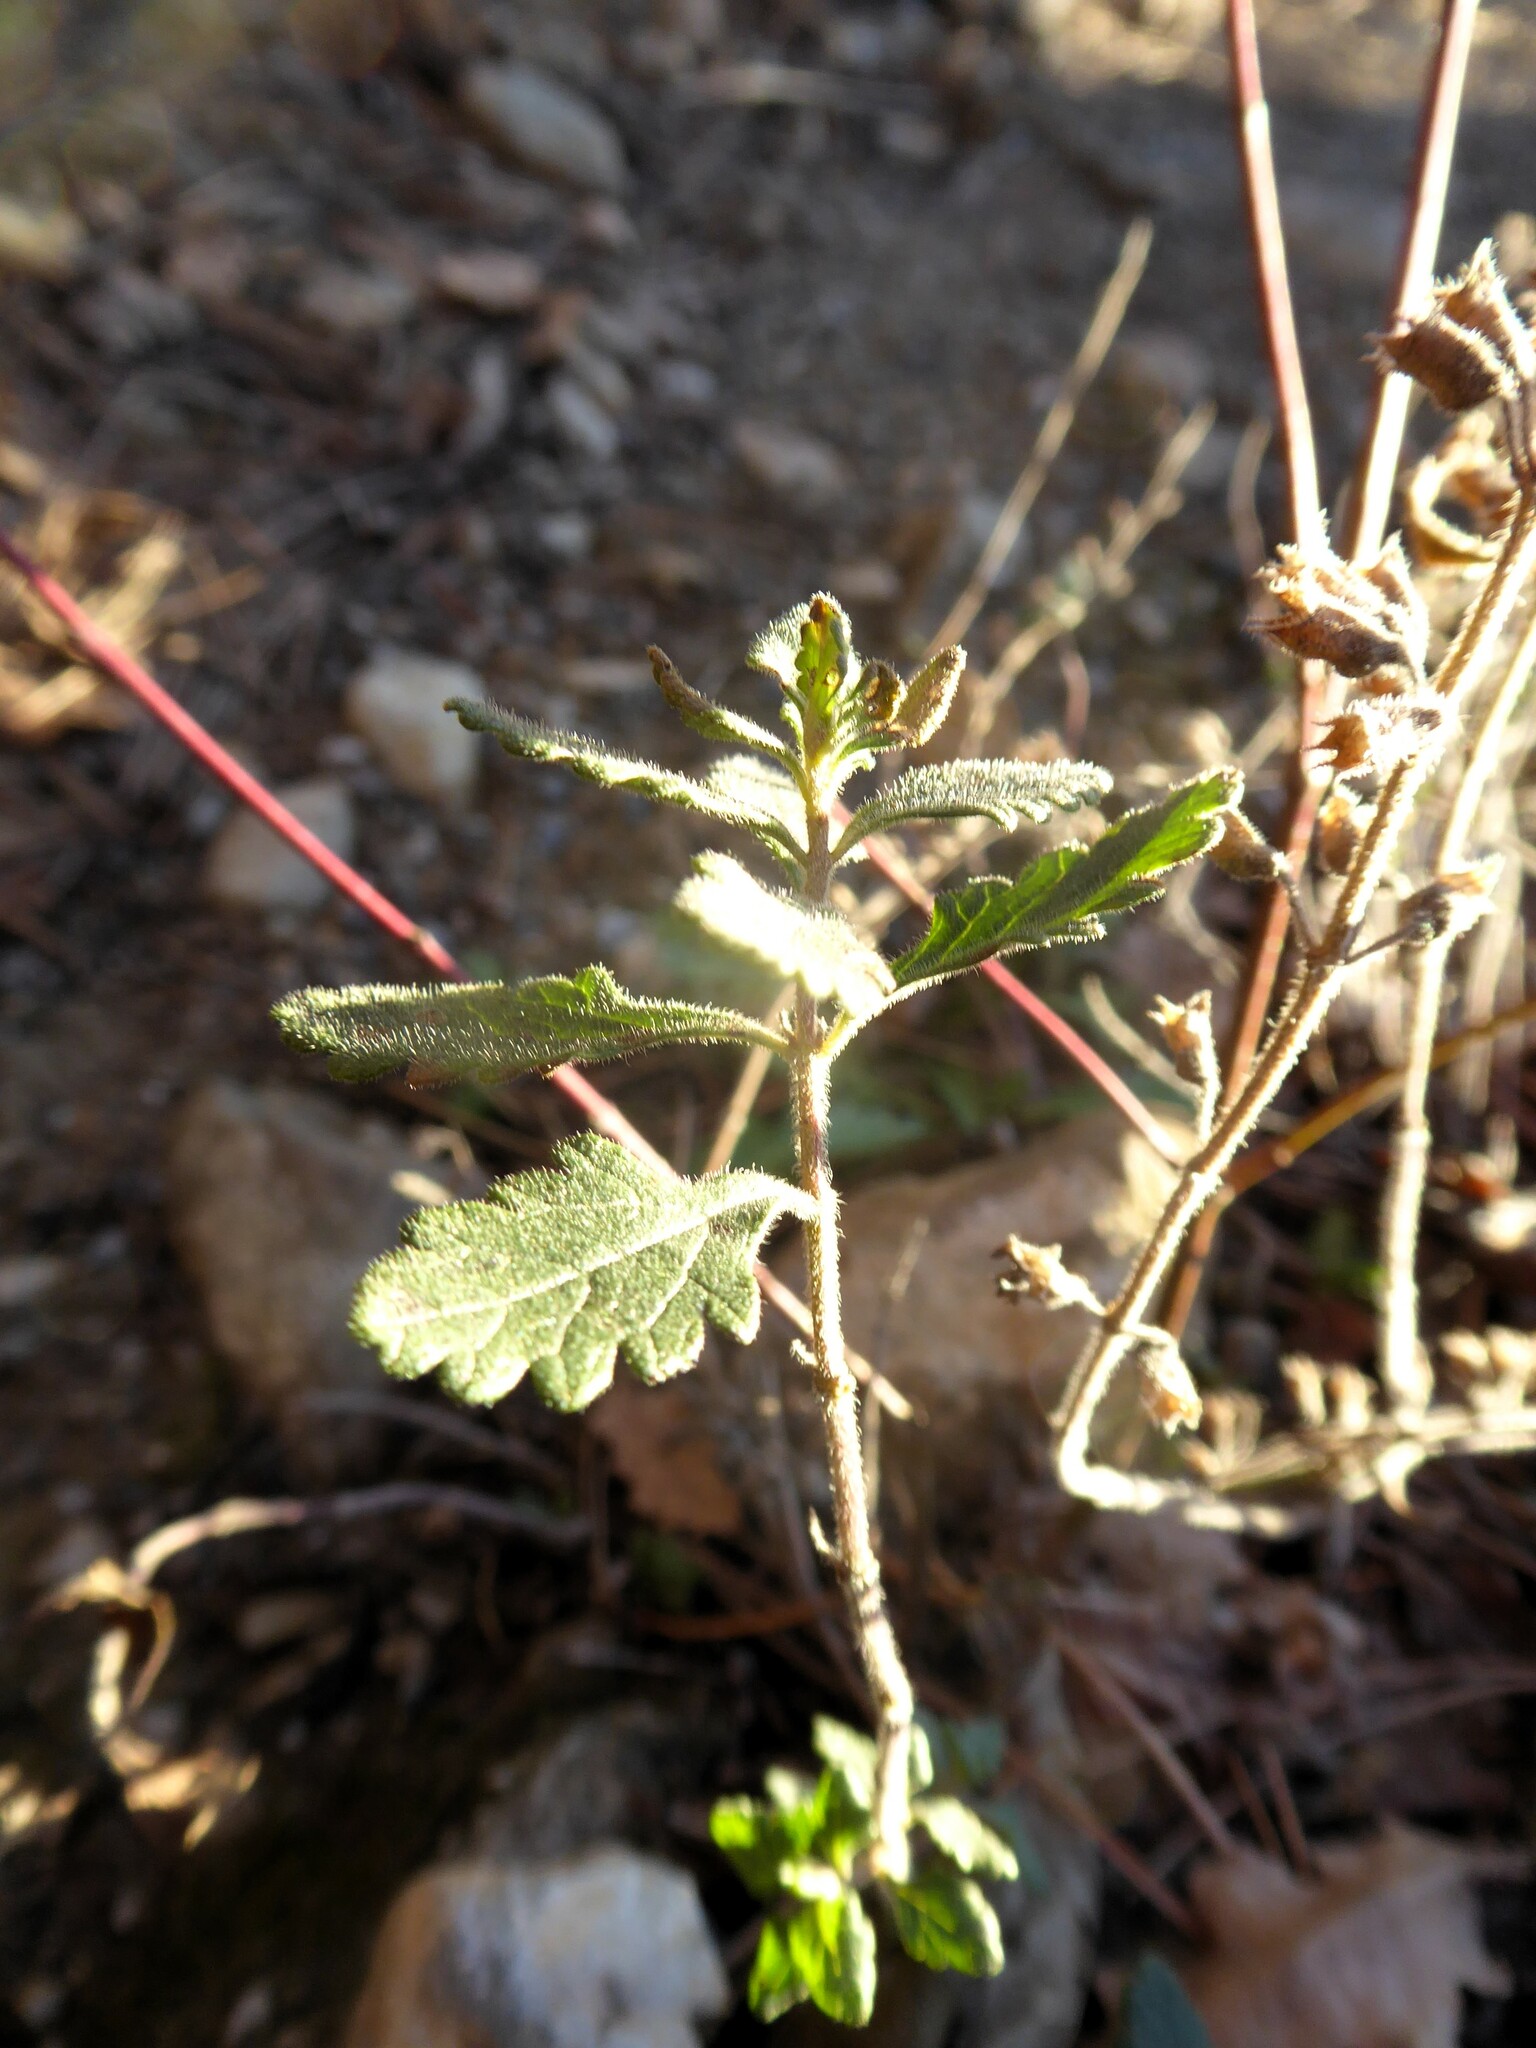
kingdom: Plantae
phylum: Tracheophyta
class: Magnoliopsida
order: Lamiales
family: Lamiaceae
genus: Teucrium
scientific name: Teucrium chamaedrys
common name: Wall germander
